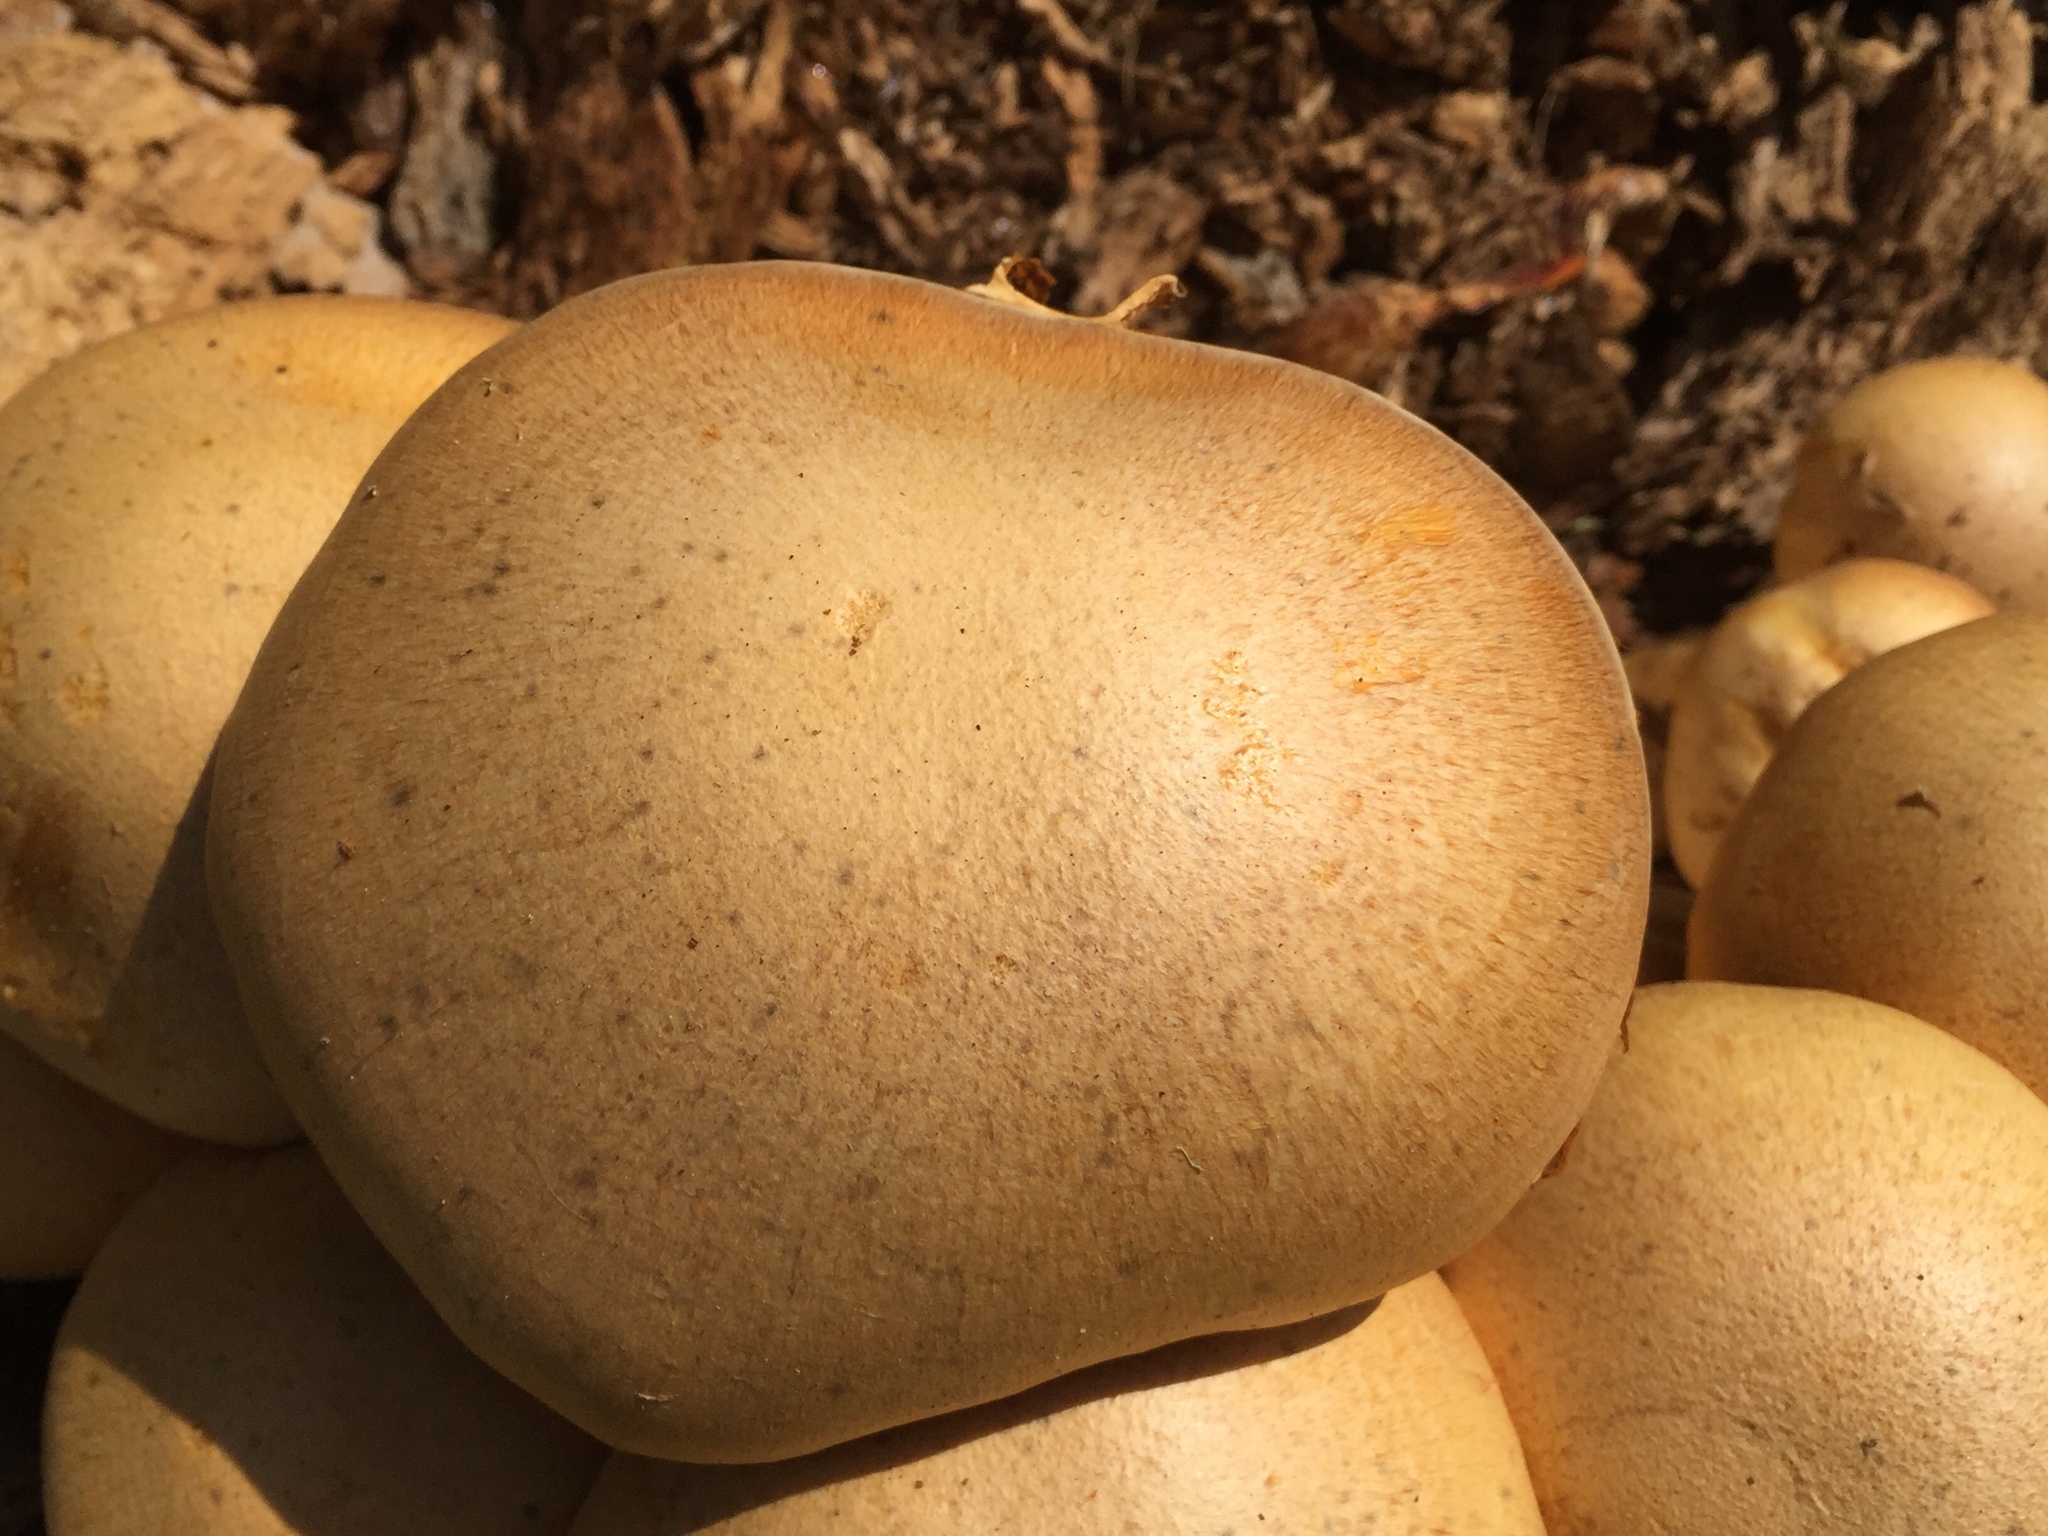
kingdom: Fungi
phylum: Basidiomycota
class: Agaricomycetes
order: Agaricales
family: Hymenogastraceae
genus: Gymnopilus
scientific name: Gymnopilus ventricosus
